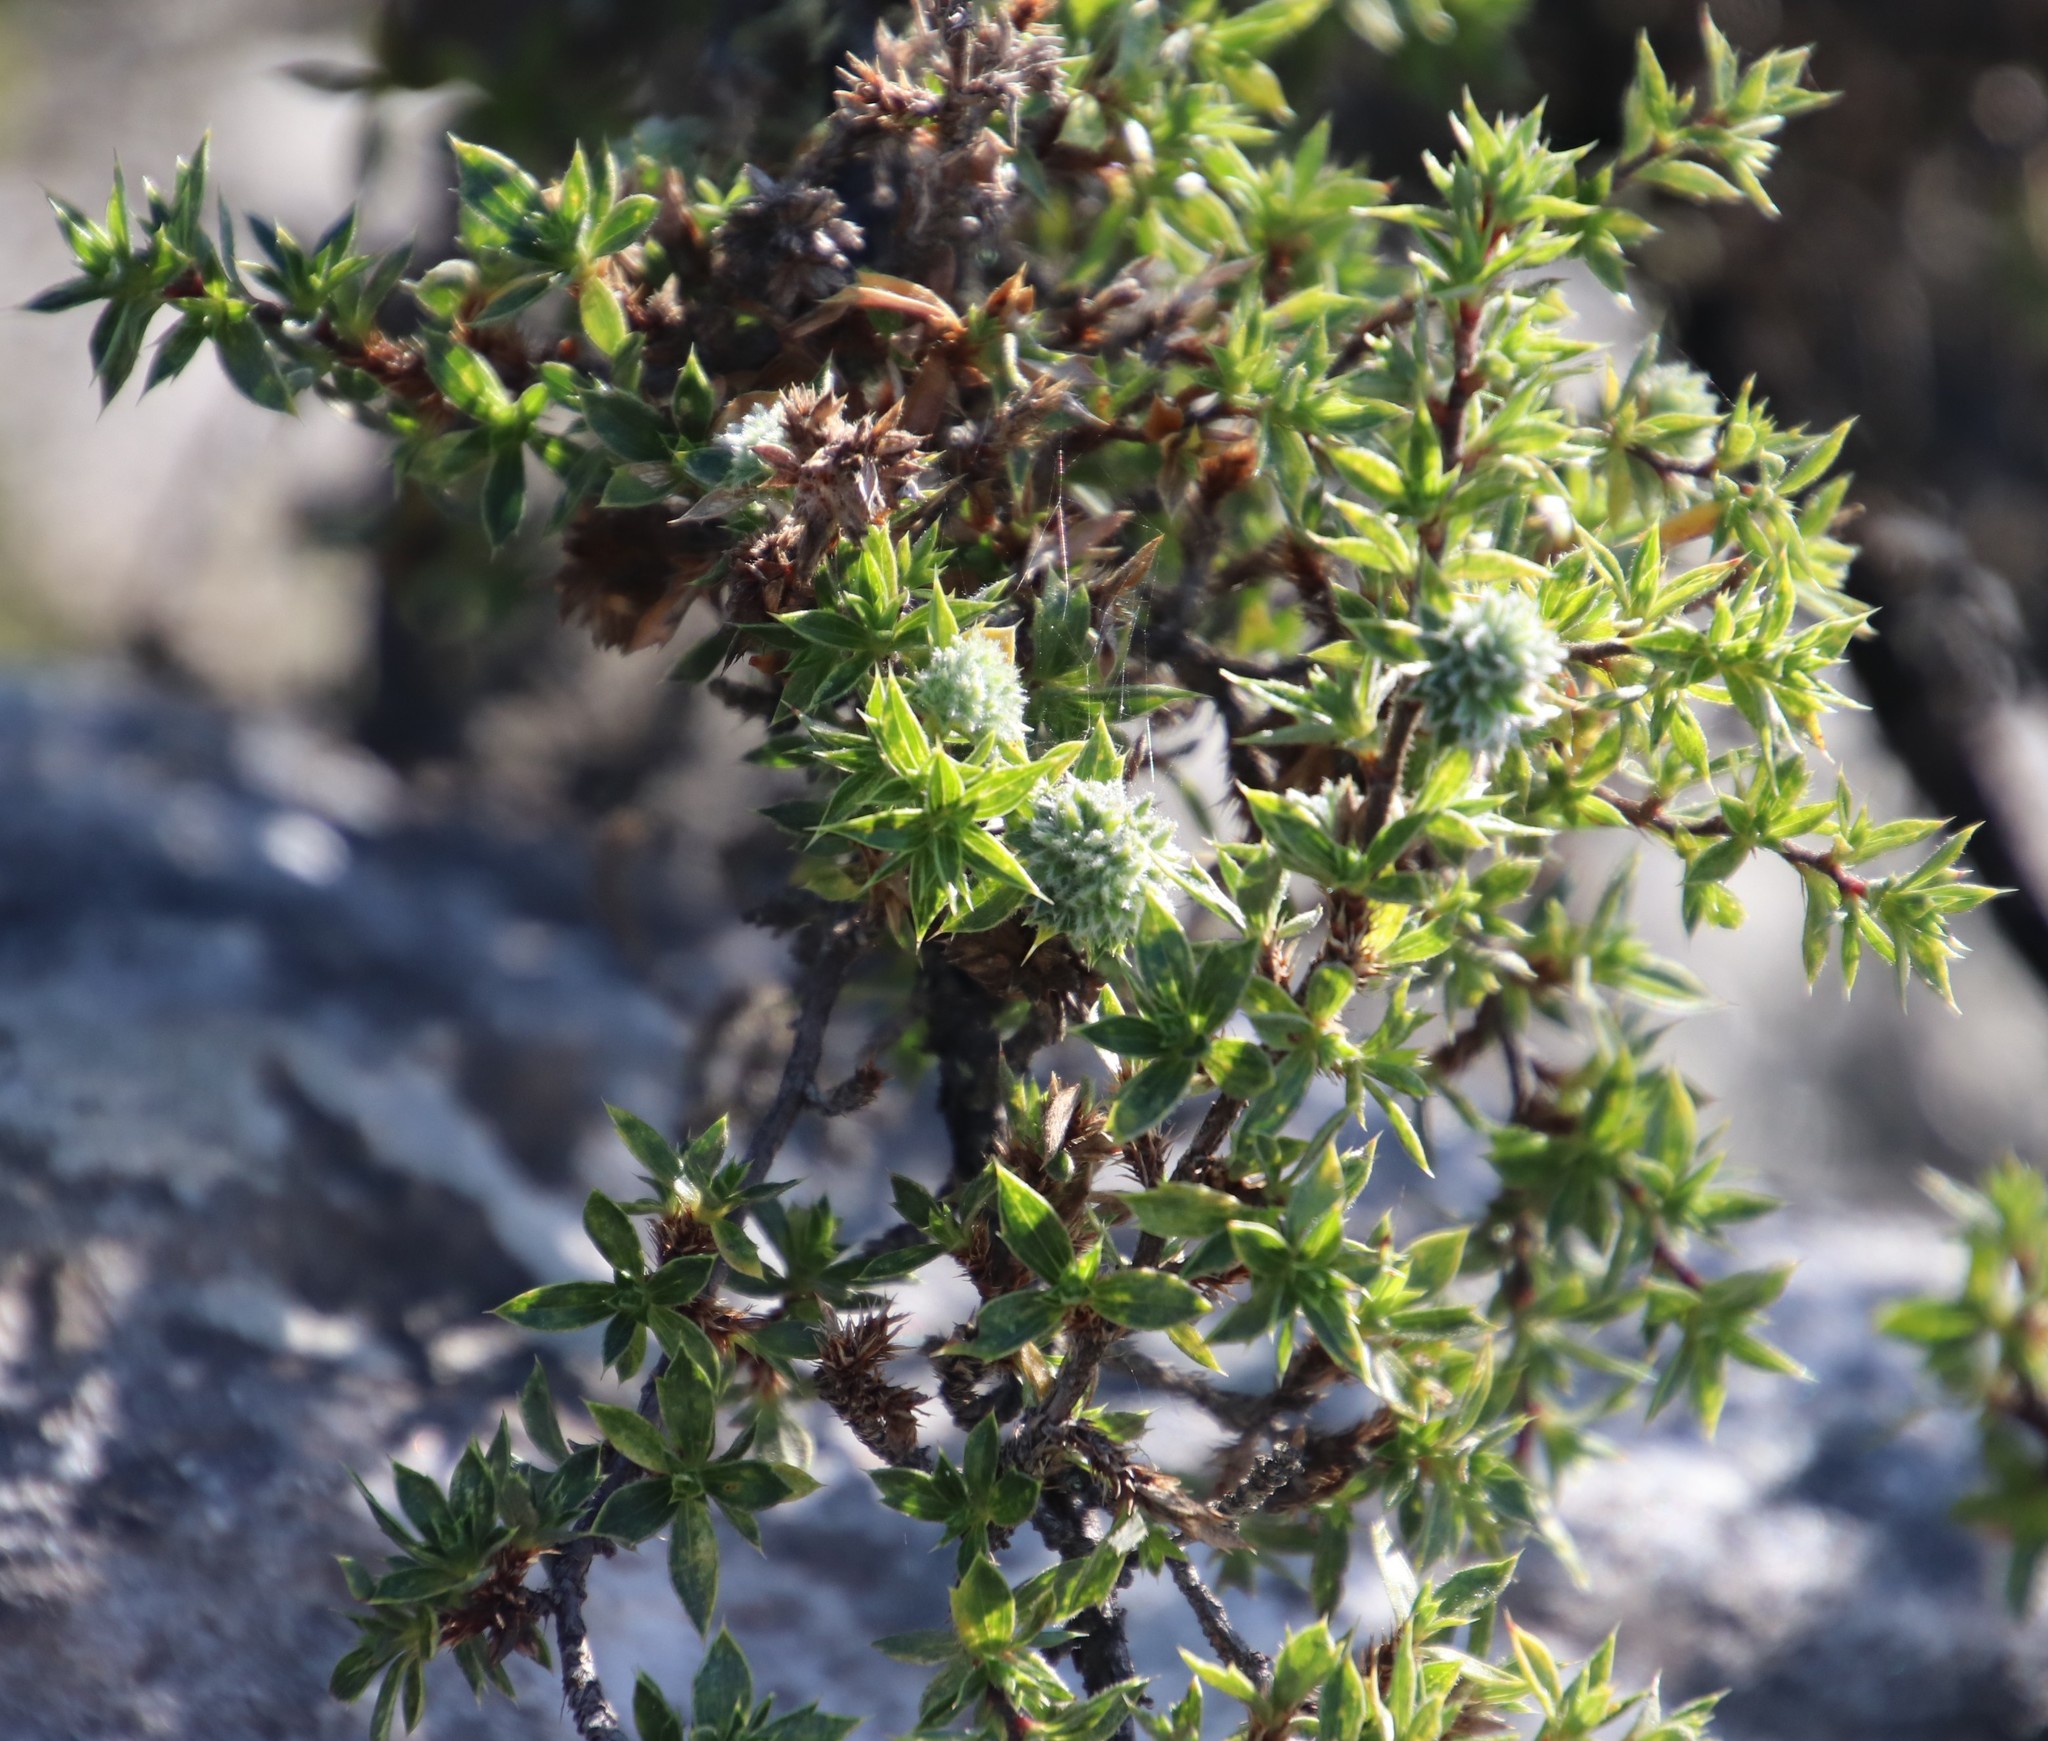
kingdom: Plantae
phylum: Tracheophyta
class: Magnoliopsida
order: Rosales
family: Rosaceae
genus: Cliffortia
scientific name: Cliffortia tridentata
